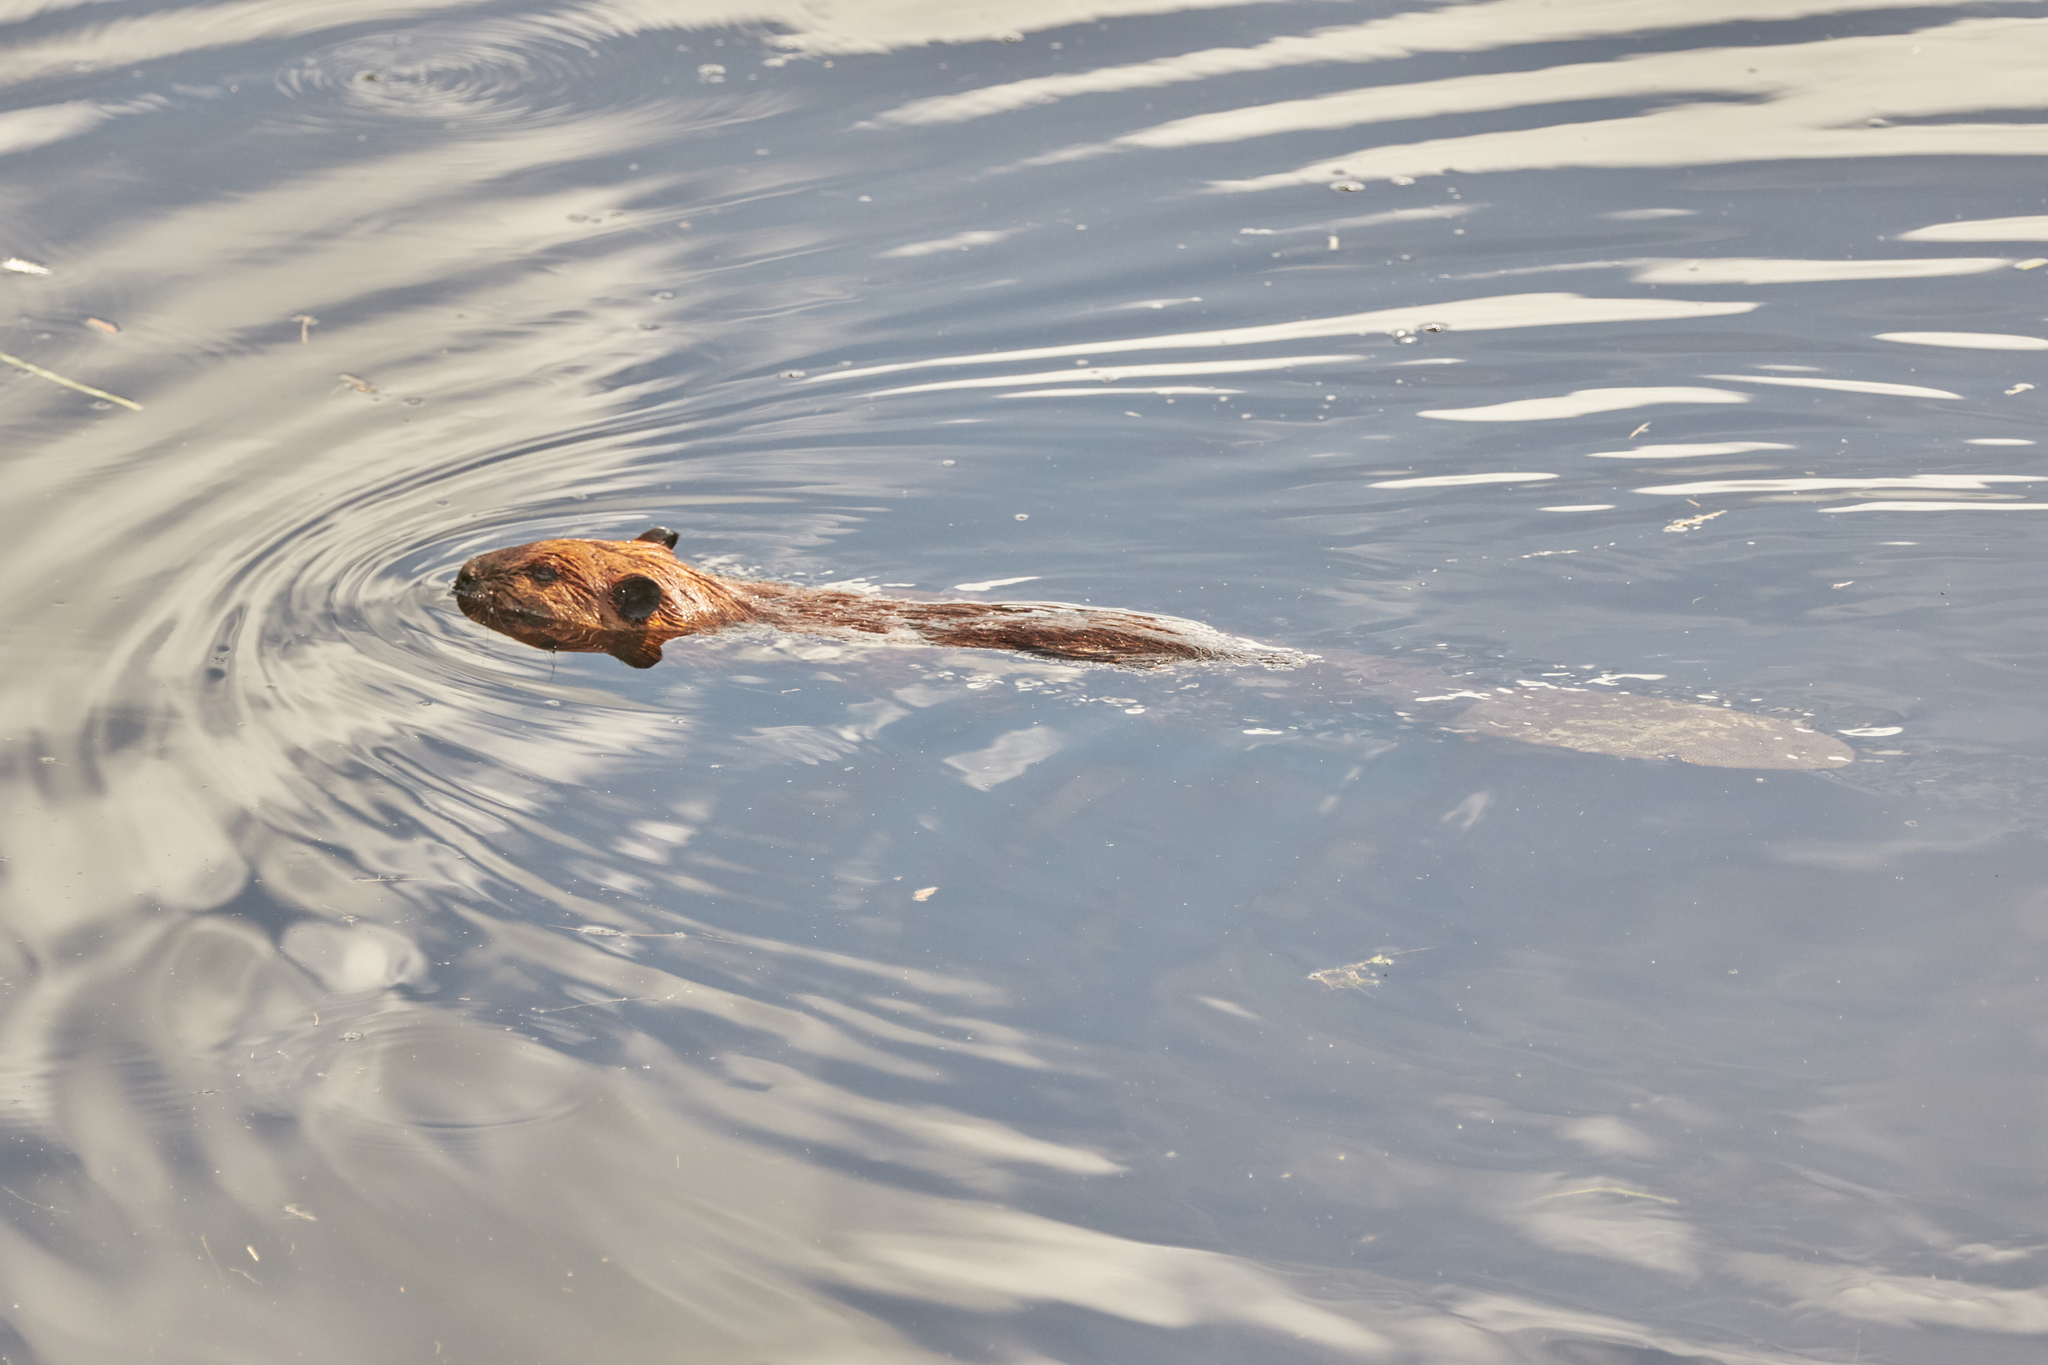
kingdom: Animalia
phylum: Chordata
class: Mammalia
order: Rodentia
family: Castoridae
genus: Castor
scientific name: Castor canadensis
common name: American beaver
